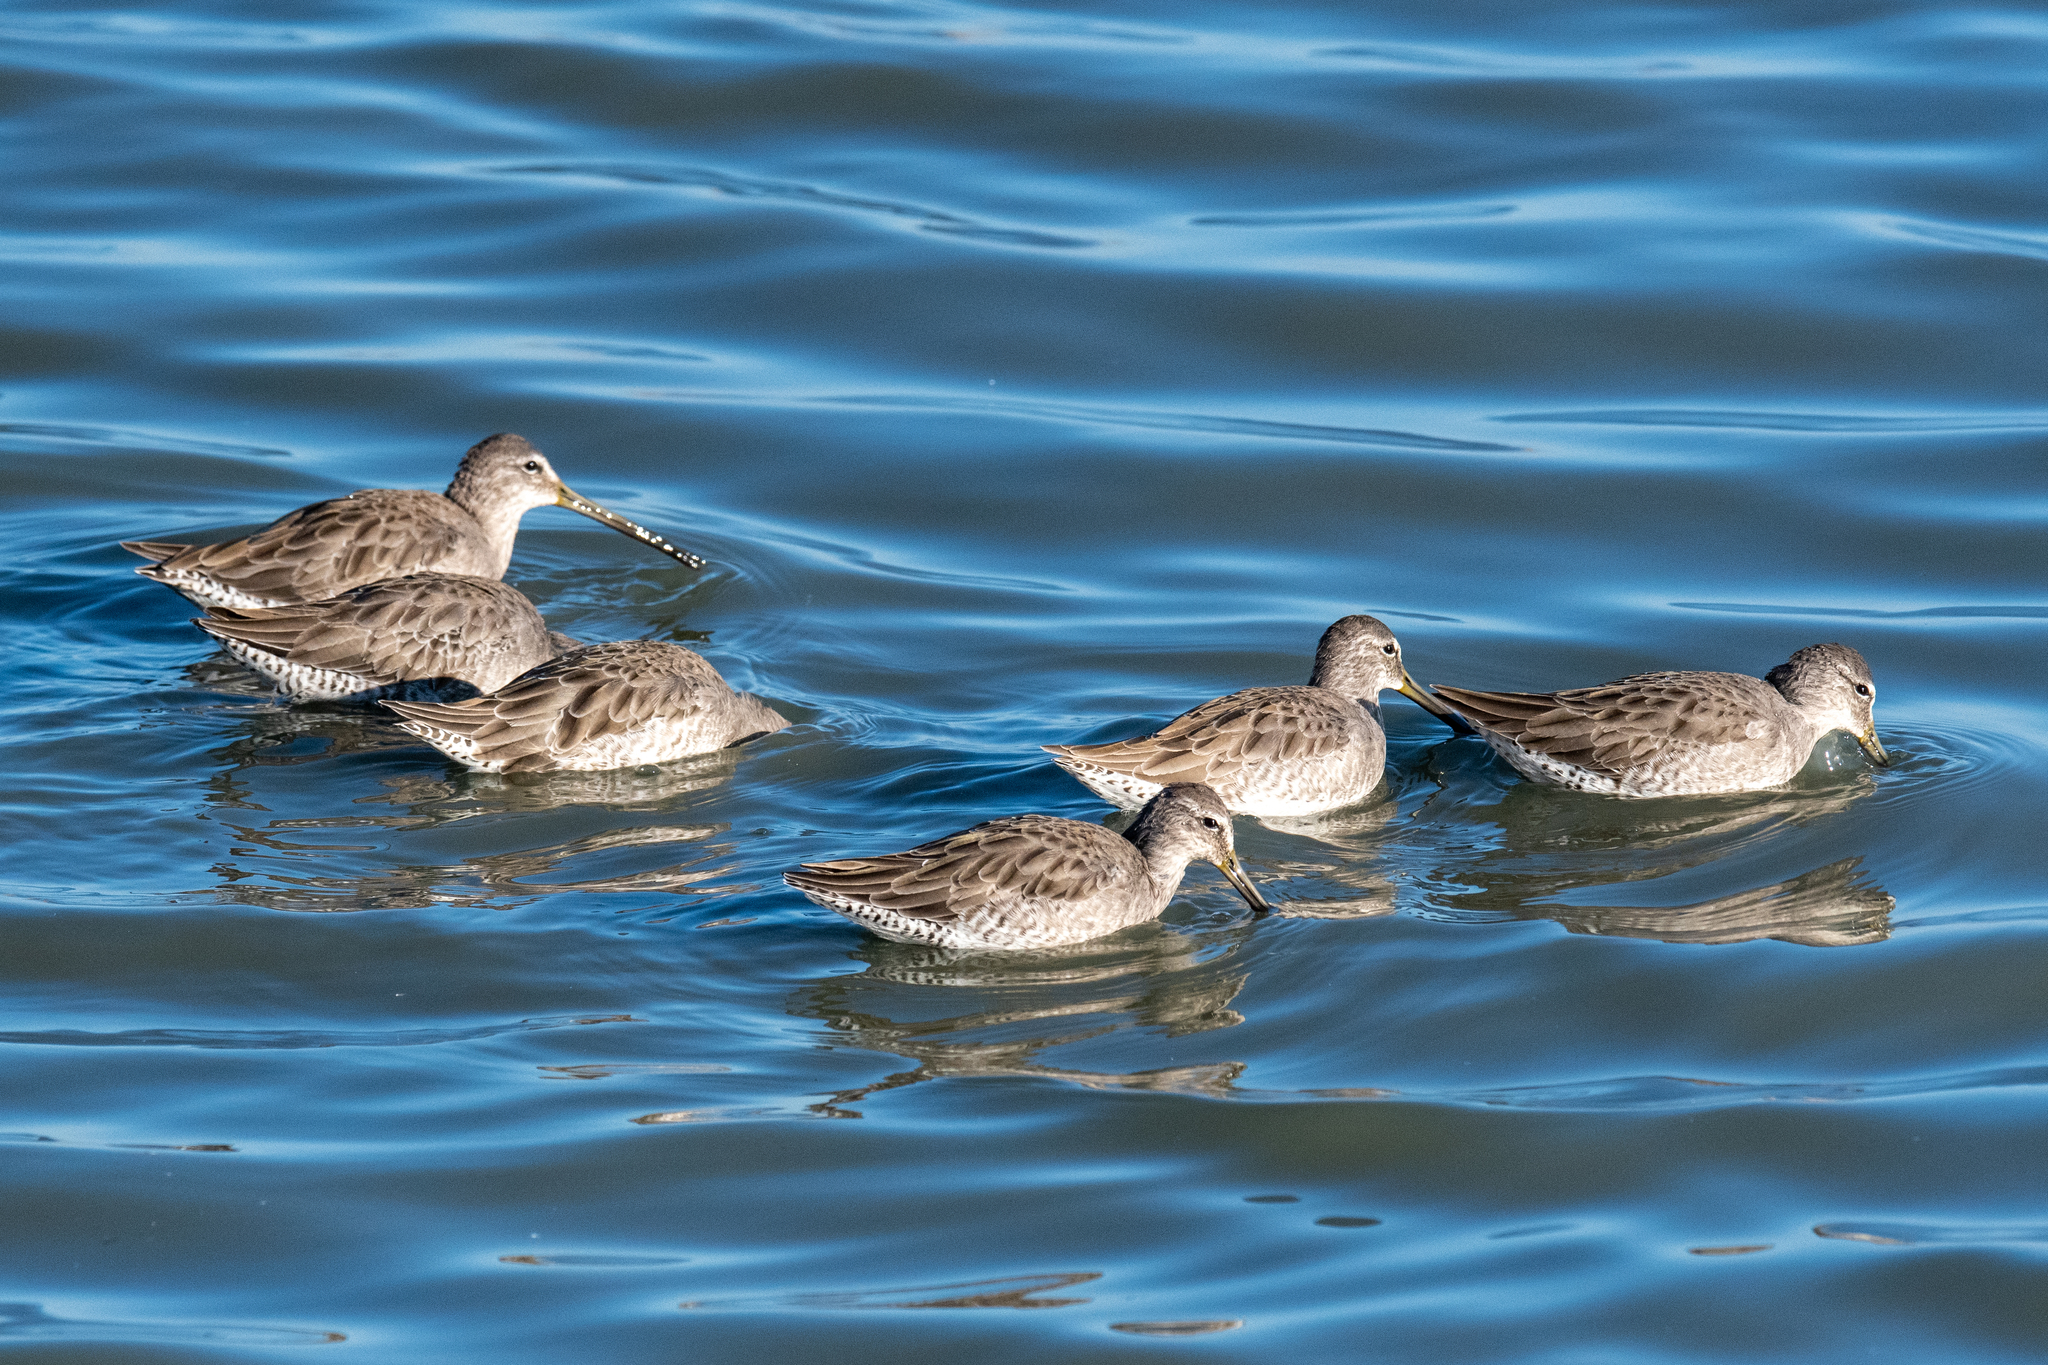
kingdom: Animalia
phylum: Chordata
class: Aves
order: Charadriiformes
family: Scolopacidae
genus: Limnodromus
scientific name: Limnodromus scolopaceus
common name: Long-billed dowitcher
